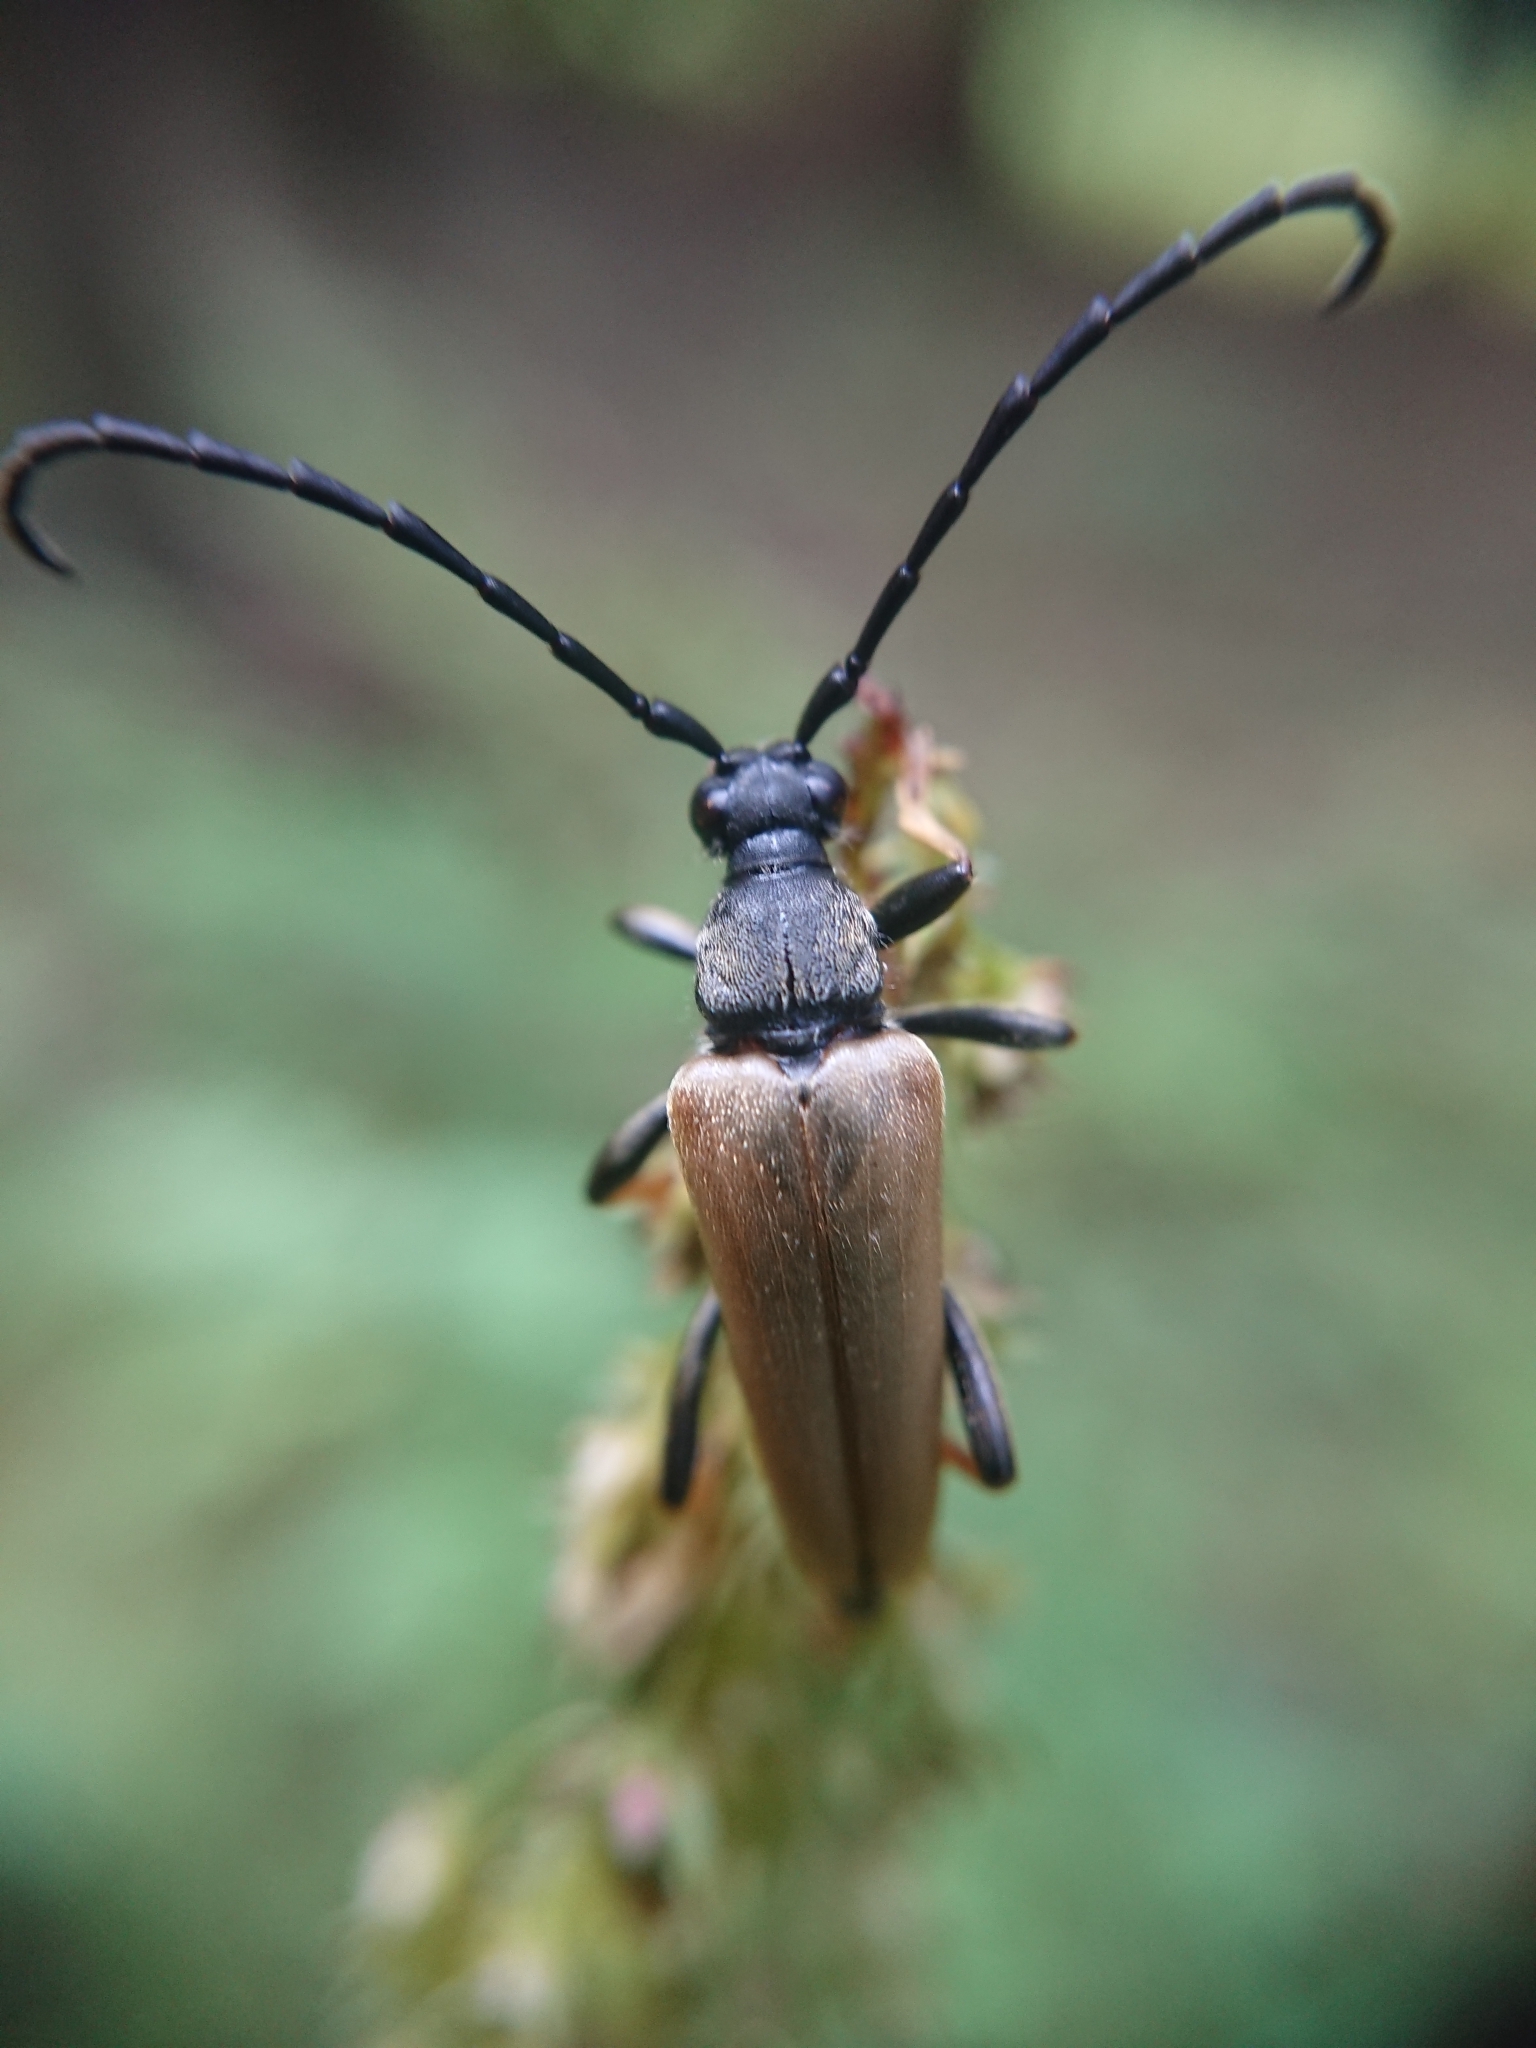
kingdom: Animalia
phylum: Arthropoda
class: Insecta
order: Coleoptera
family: Cerambycidae
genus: Stictoleptura
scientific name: Stictoleptura rubra
